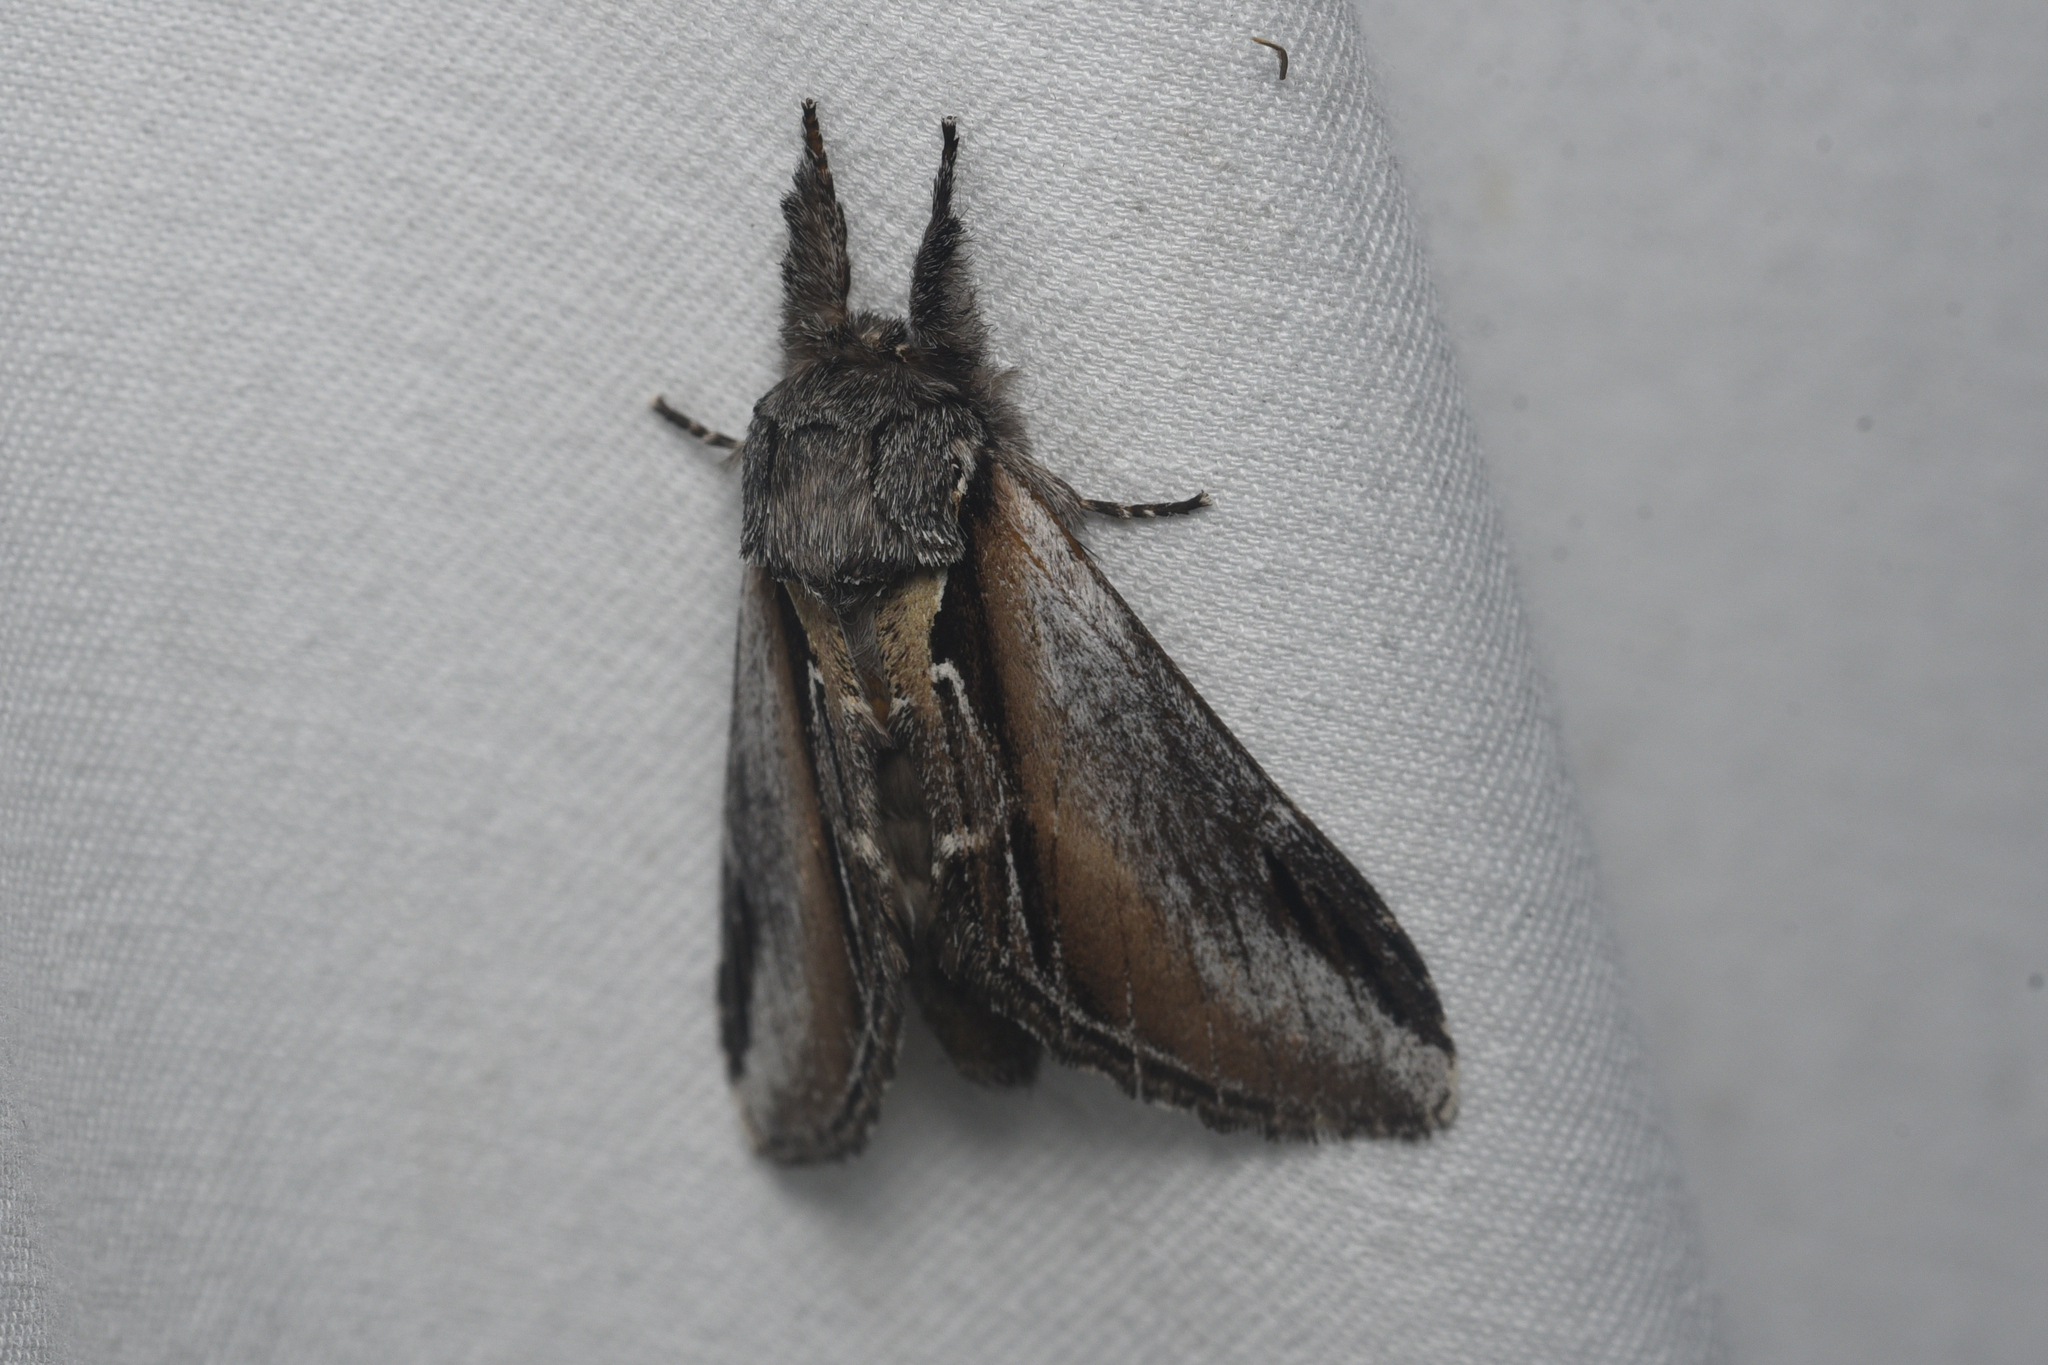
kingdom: Animalia
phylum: Arthropoda
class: Insecta
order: Lepidoptera
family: Notodontidae
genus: Pheosia
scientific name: Pheosia rimosa
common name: Black-rimmed prominent
